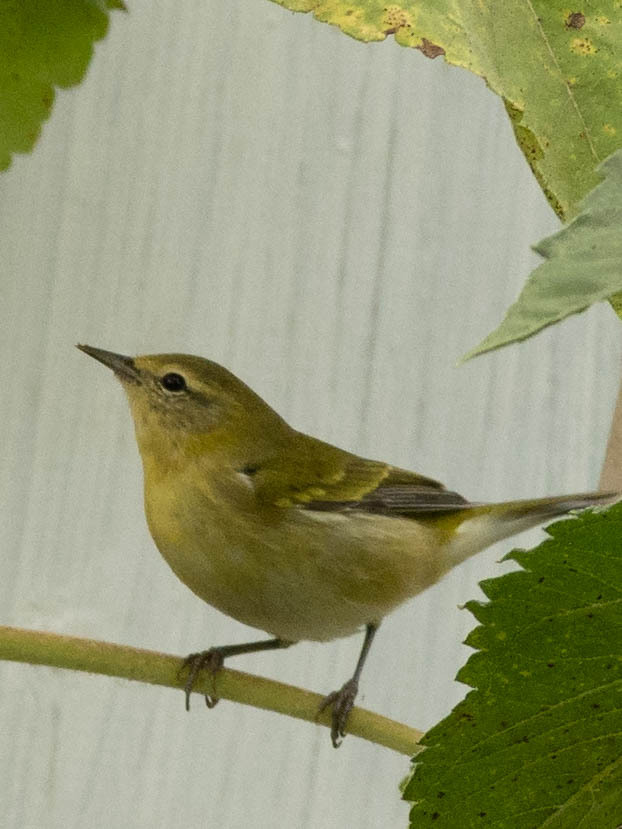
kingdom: Animalia
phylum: Chordata
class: Aves
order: Passeriformes
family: Parulidae
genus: Leiothlypis
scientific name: Leiothlypis peregrina
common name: Tennessee warbler
